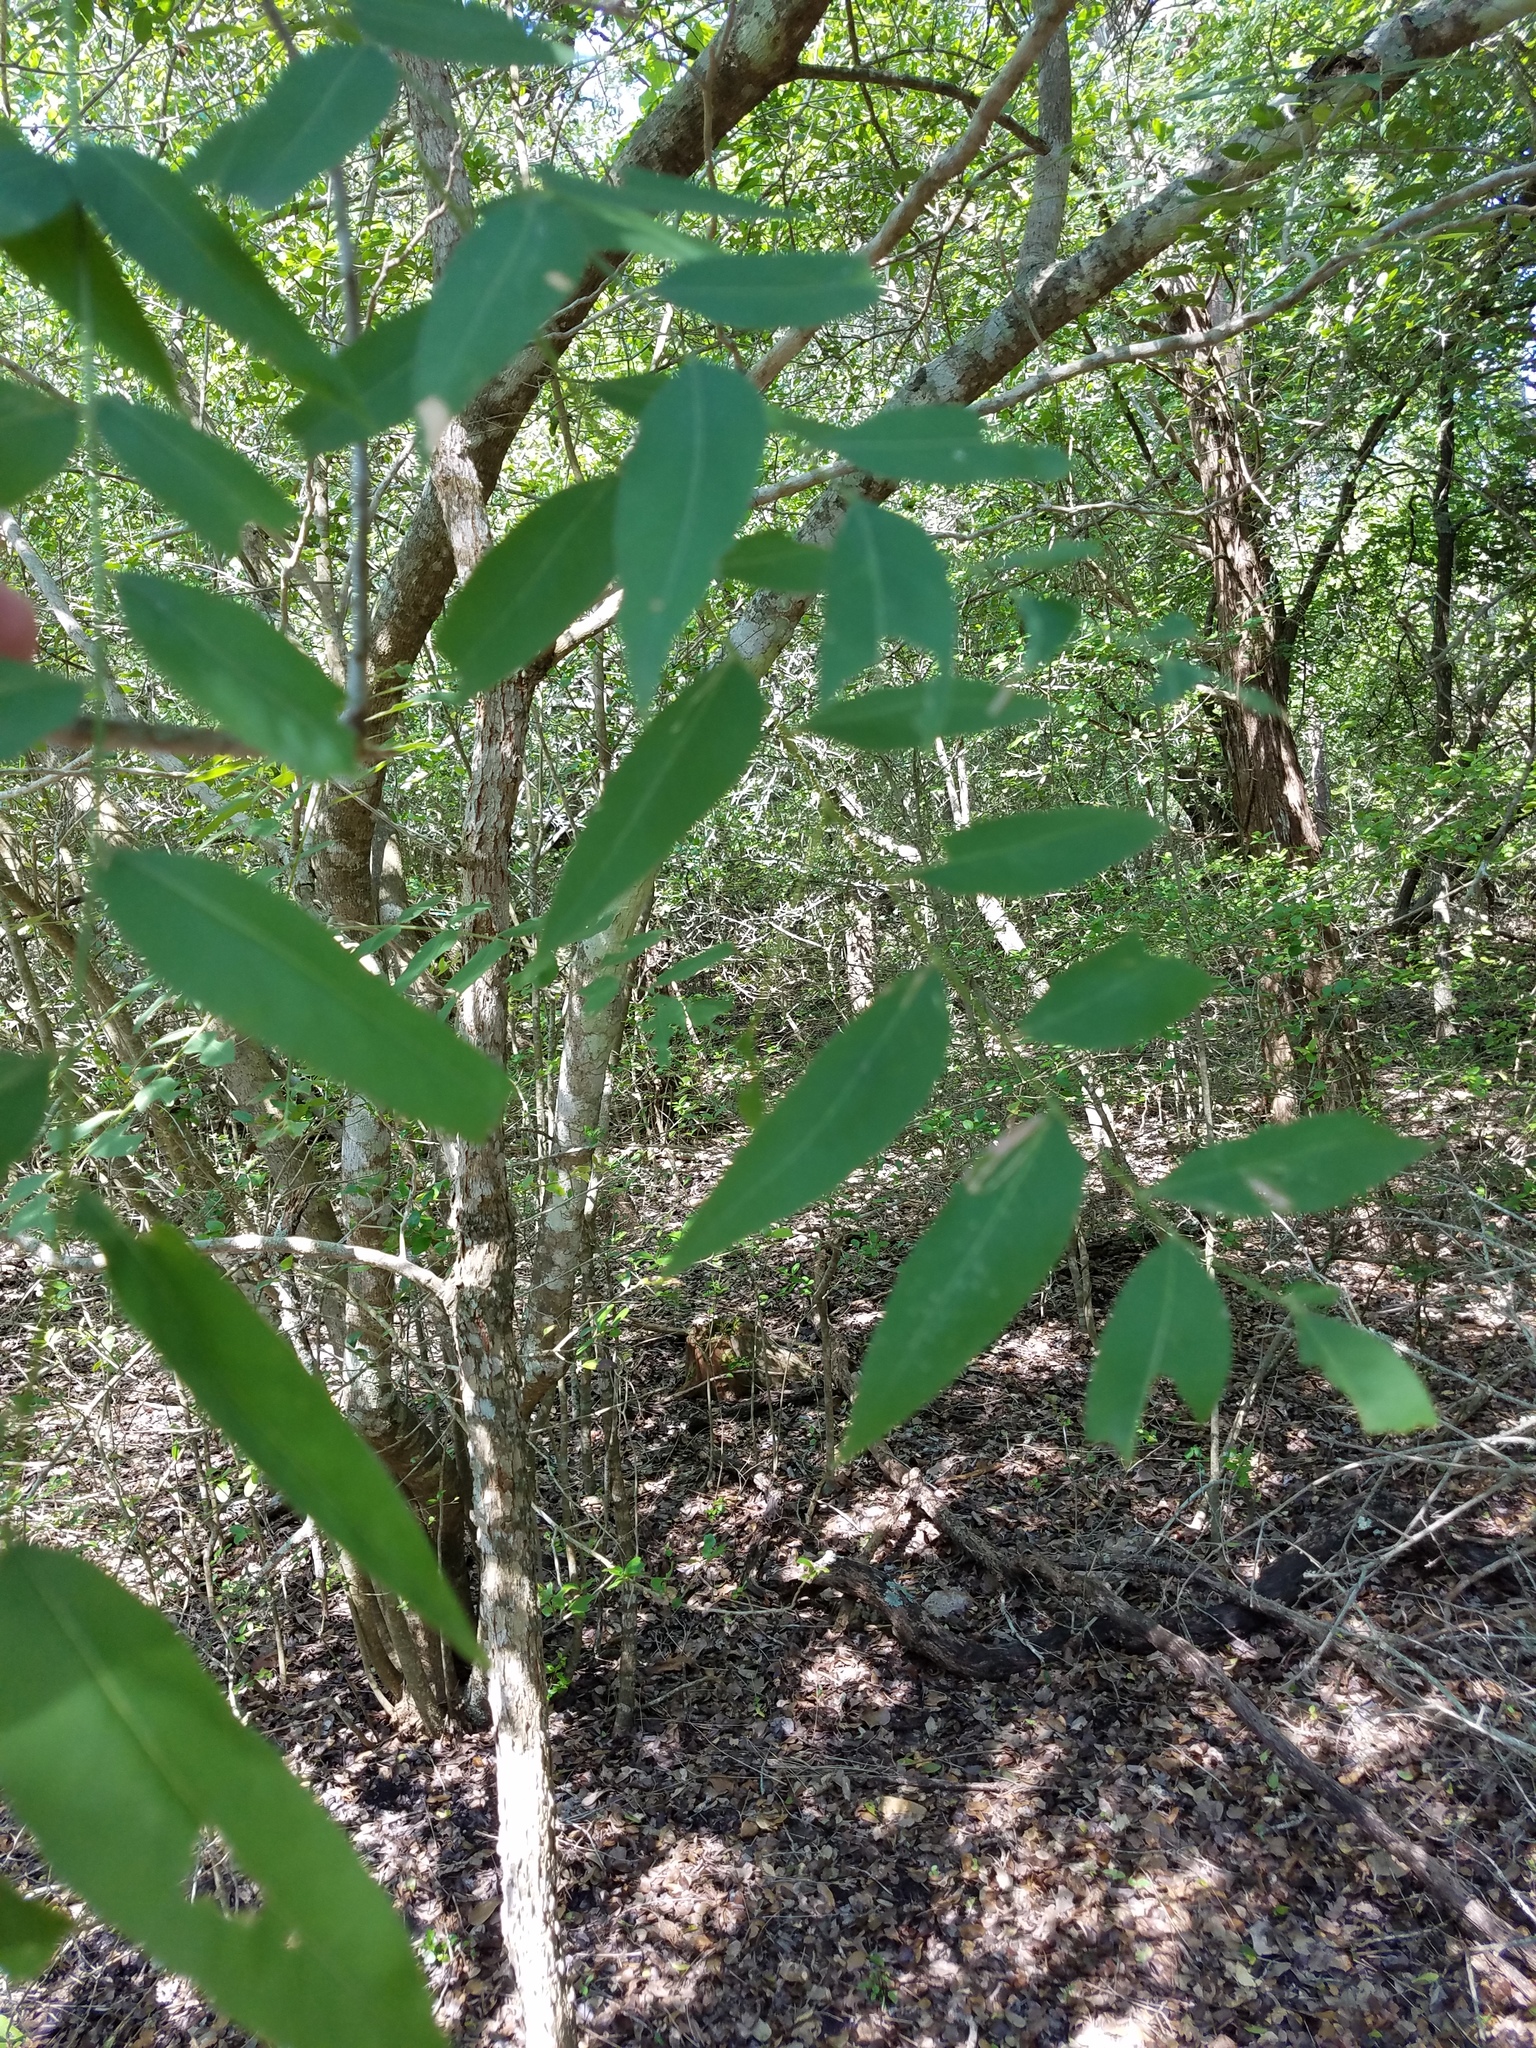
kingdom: Plantae
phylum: Tracheophyta
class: Magnoliopsida
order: Sapindales
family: Sapindaceae
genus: Sapindus
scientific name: Sapindus drummondii
